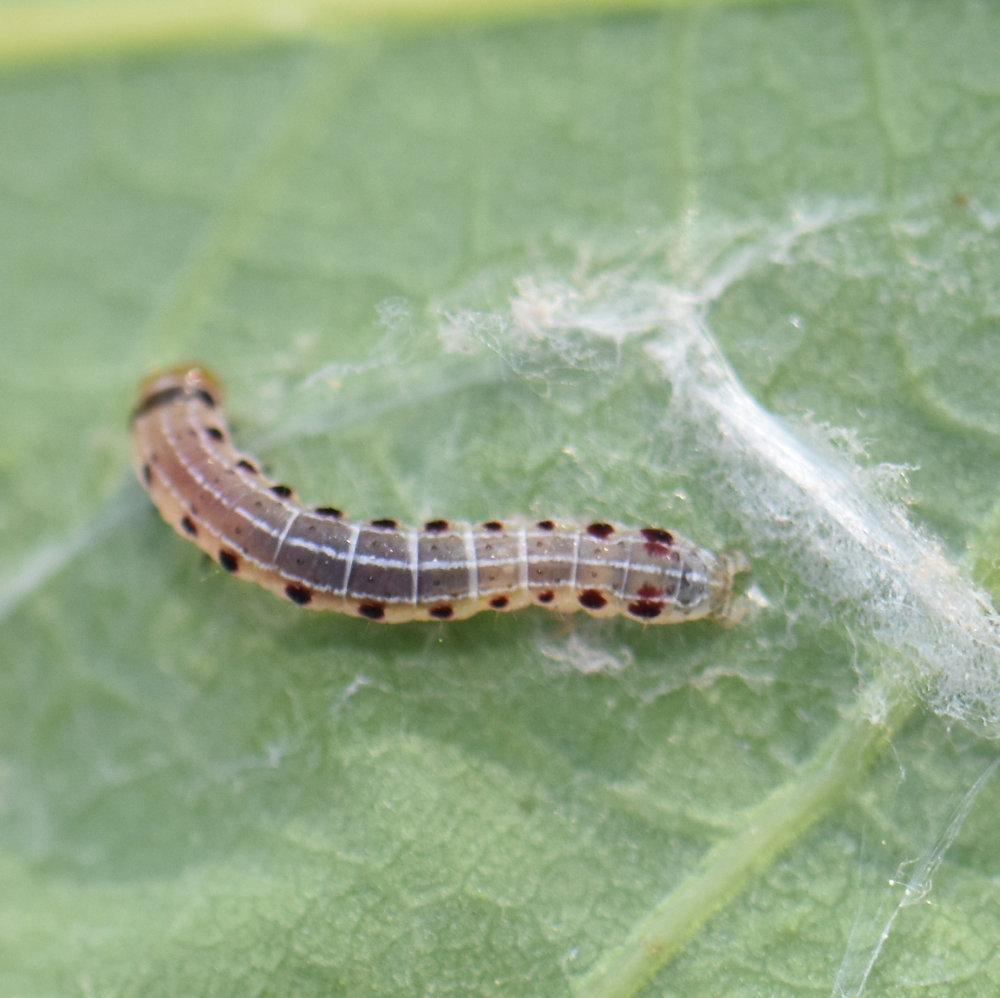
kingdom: Animalia
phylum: Arthropoda
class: Insecta
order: Lepidoptera
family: Noctuidae
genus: Achatia
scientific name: Achatia confusa
